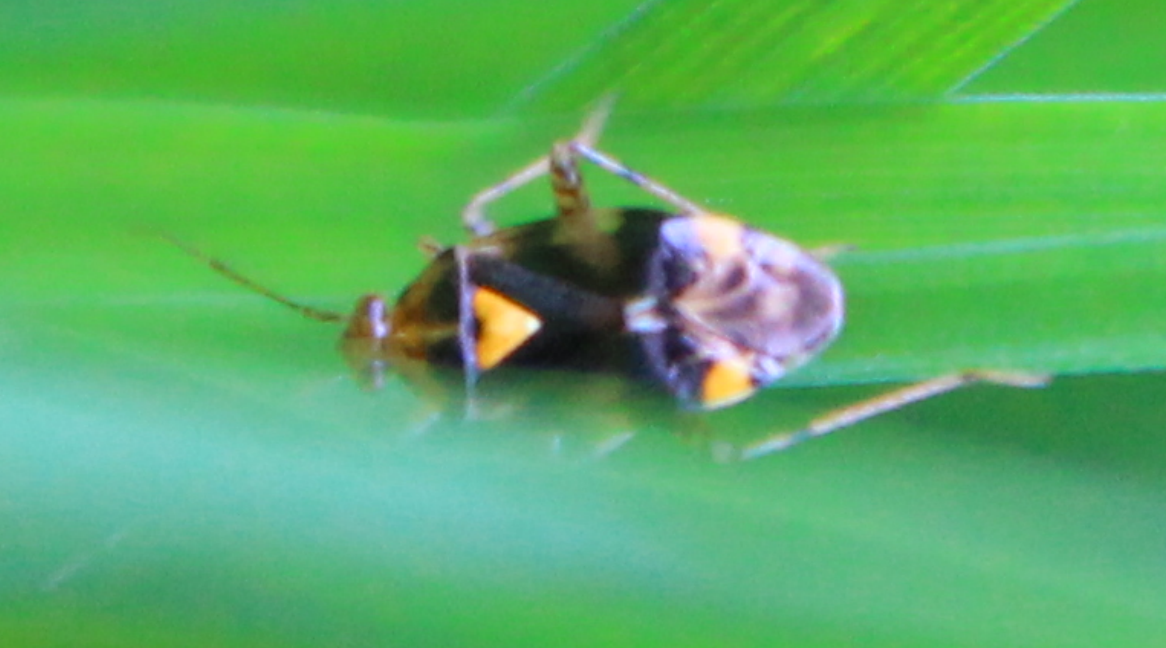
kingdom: Animalia
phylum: Arthropoda
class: Insecta
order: Hemiptera
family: Miridae
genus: Liocoris
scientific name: Liocoris tripustulatus
